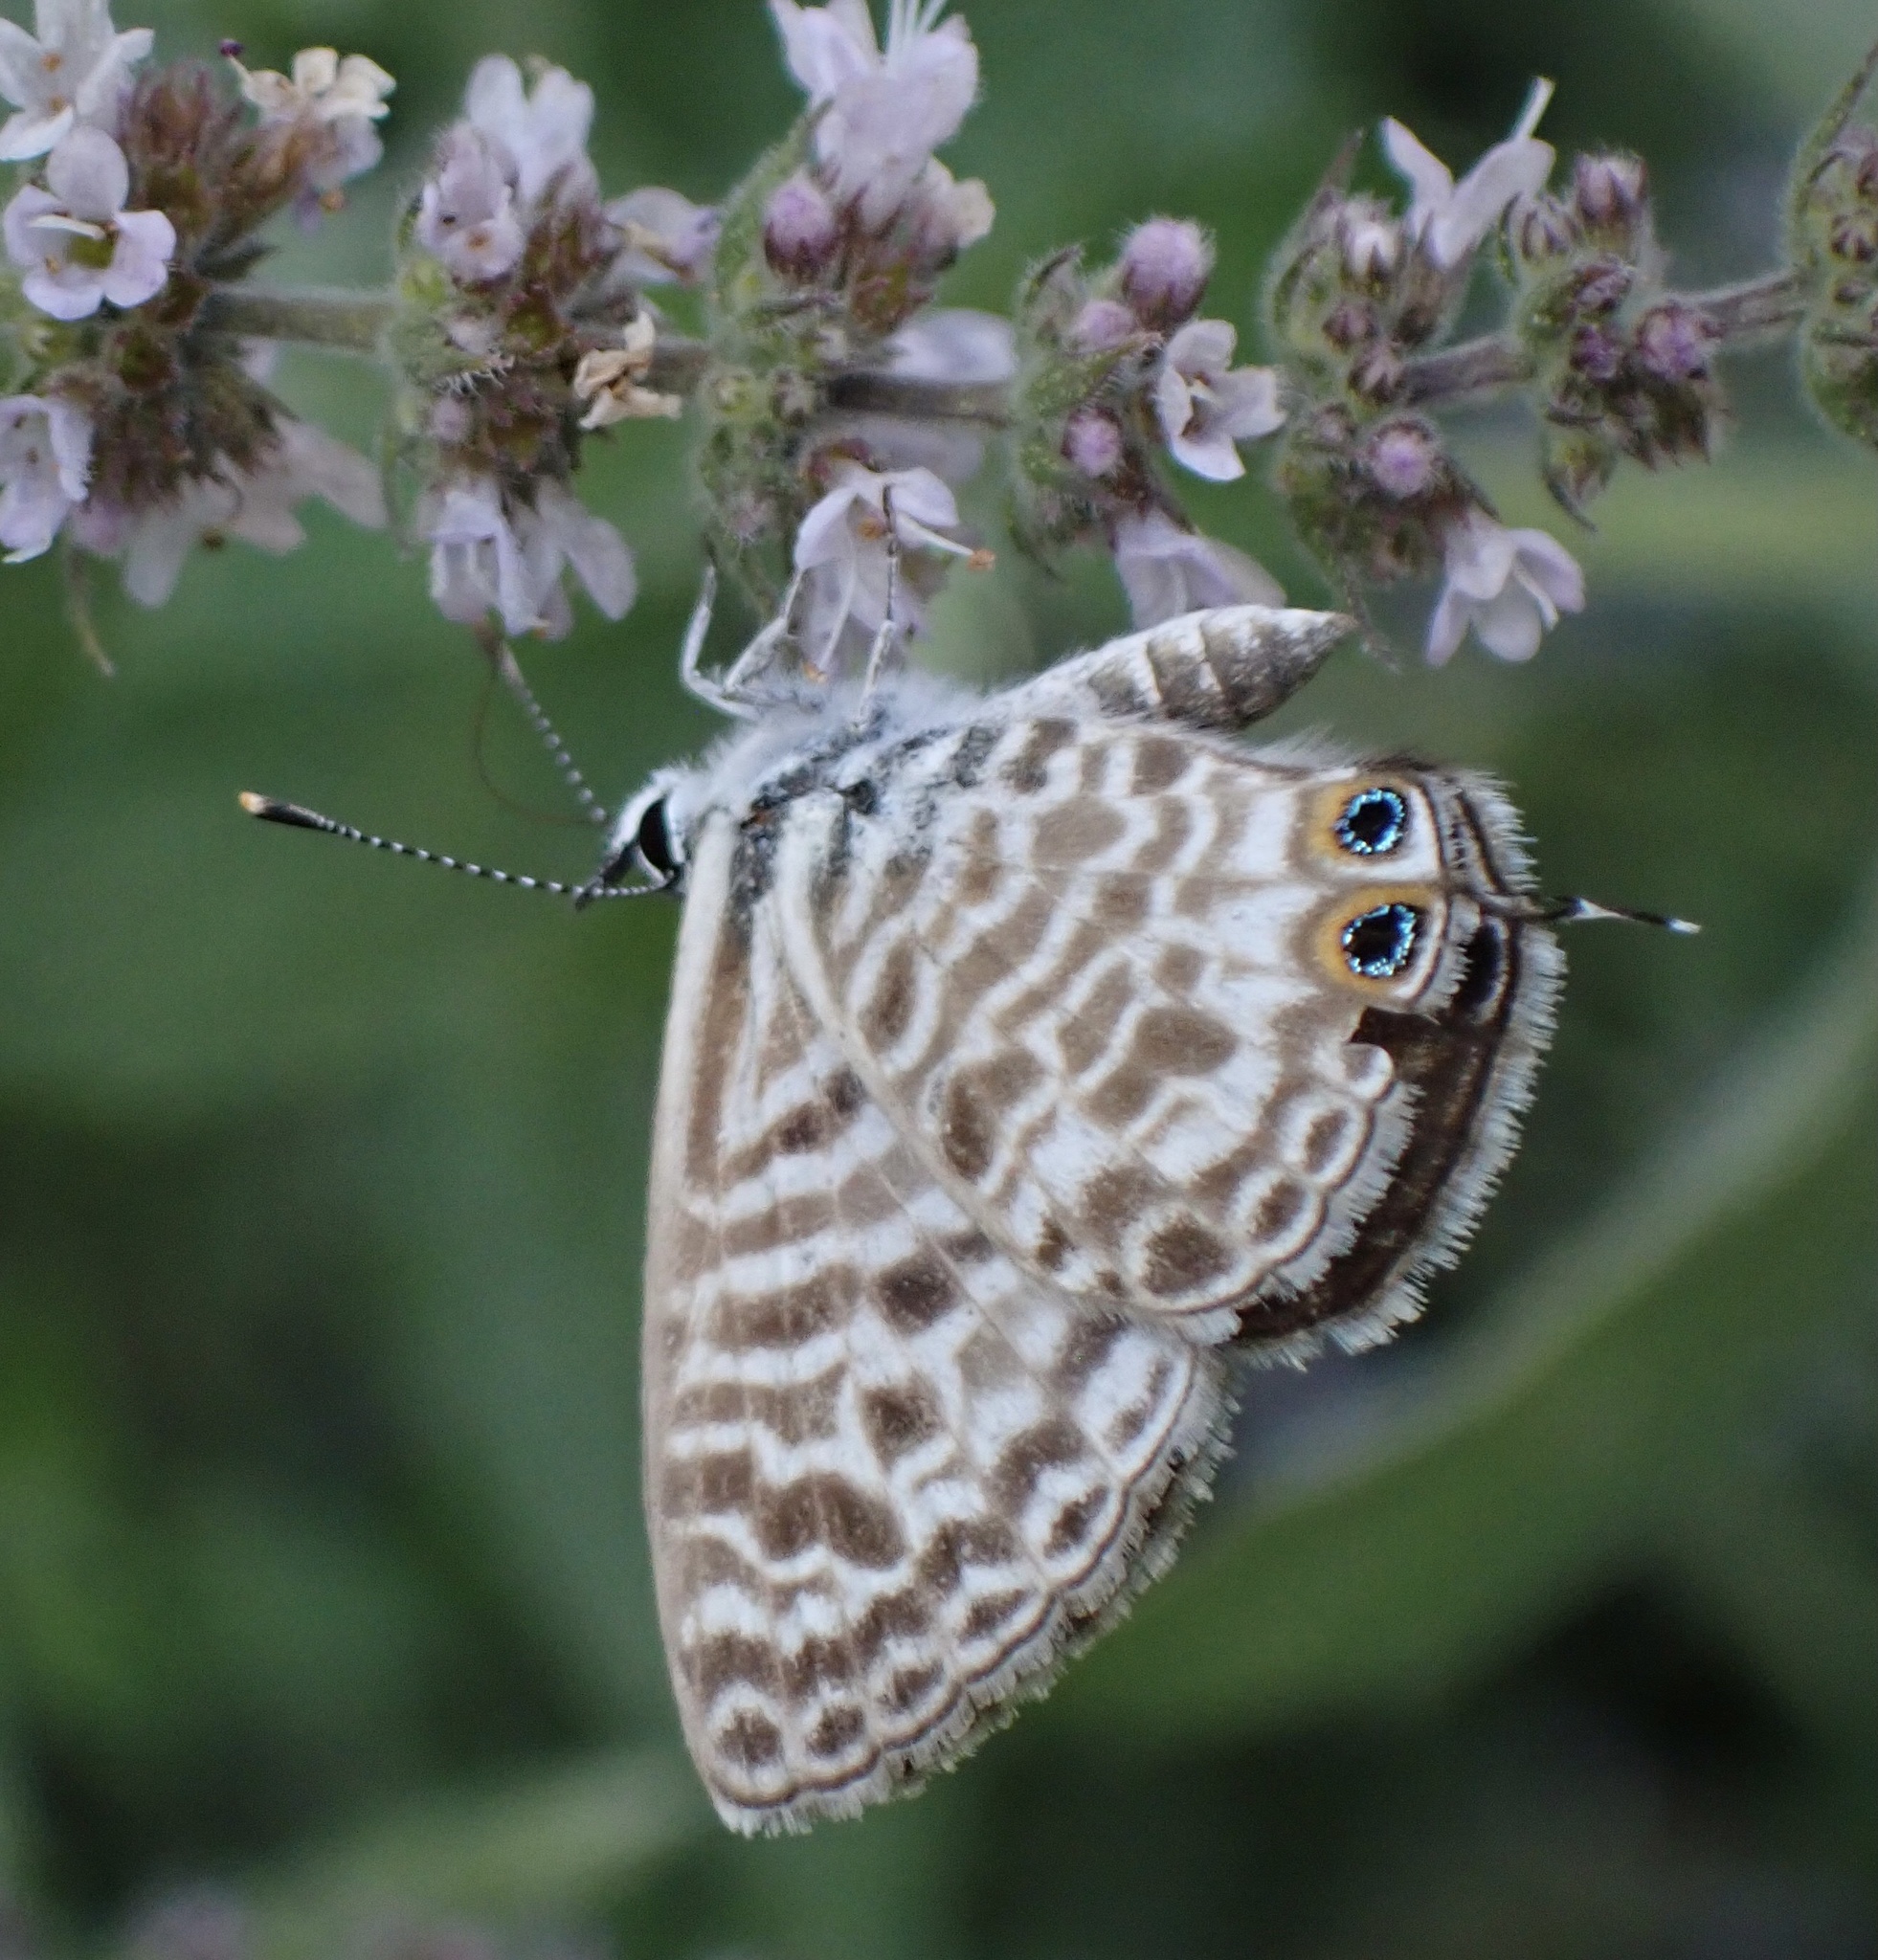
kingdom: Animalia
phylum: Arthropoda
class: Insecta
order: Lepidoptera
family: Lycaenidae
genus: Leptotes
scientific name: Leptotes pirithous
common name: Lang's short-tailed blue
